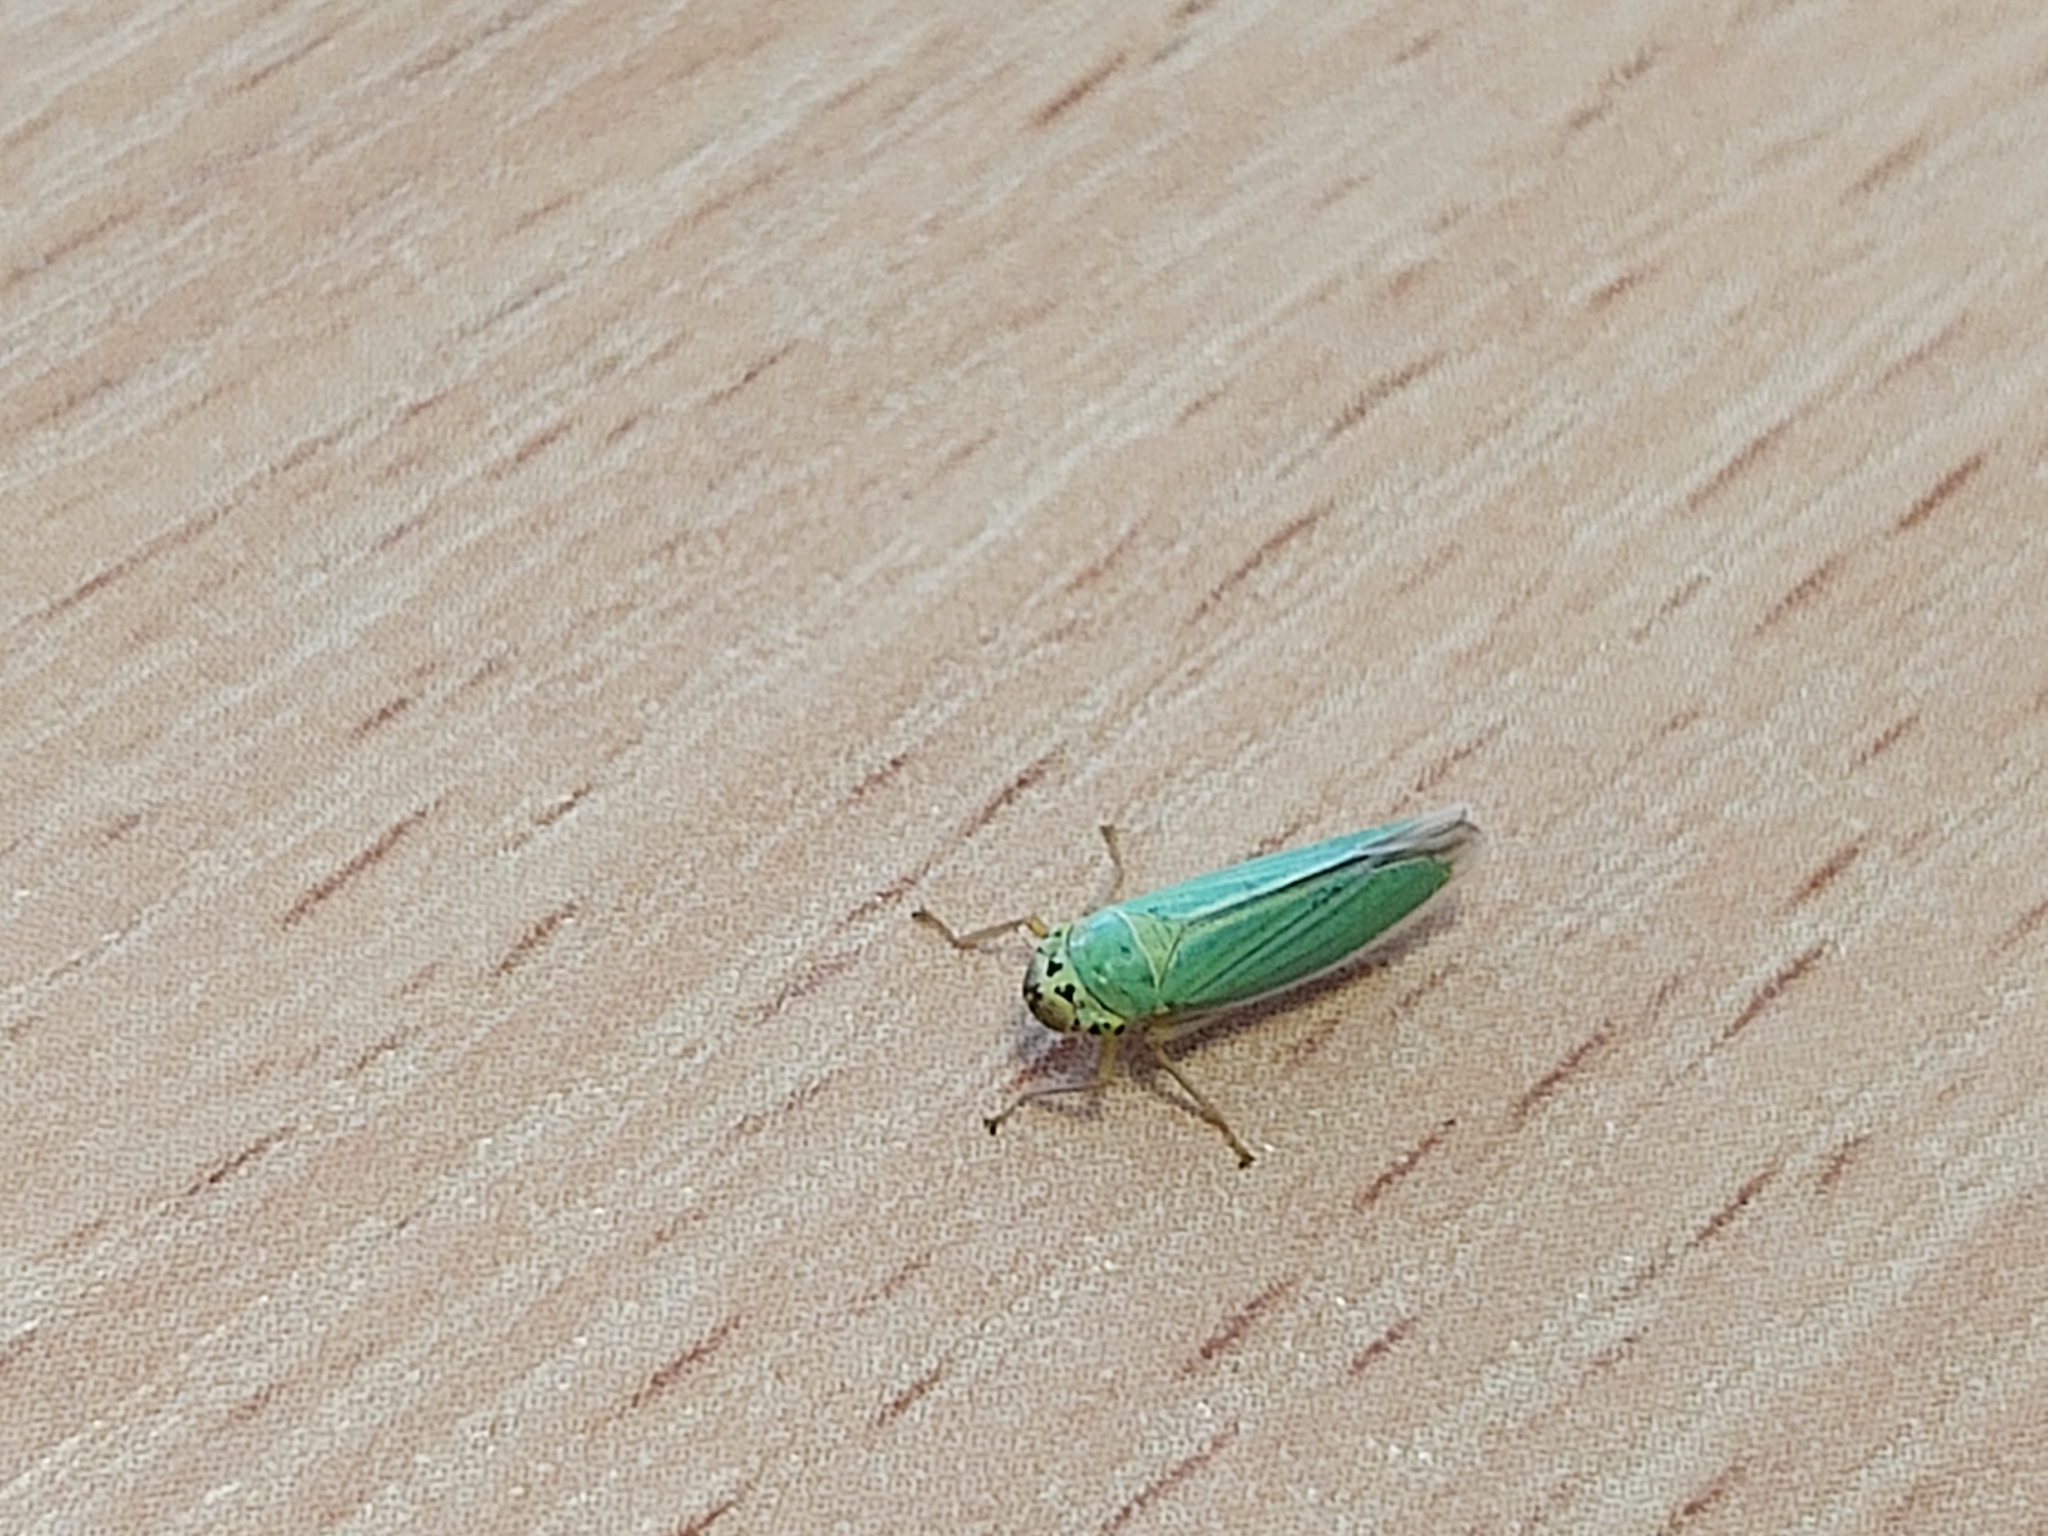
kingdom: Animalia
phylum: Arthropoda
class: Insecta
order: Hemiptera
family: Cicadellidae
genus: Cicadella
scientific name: Cicadella viridis
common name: Leafhopper
